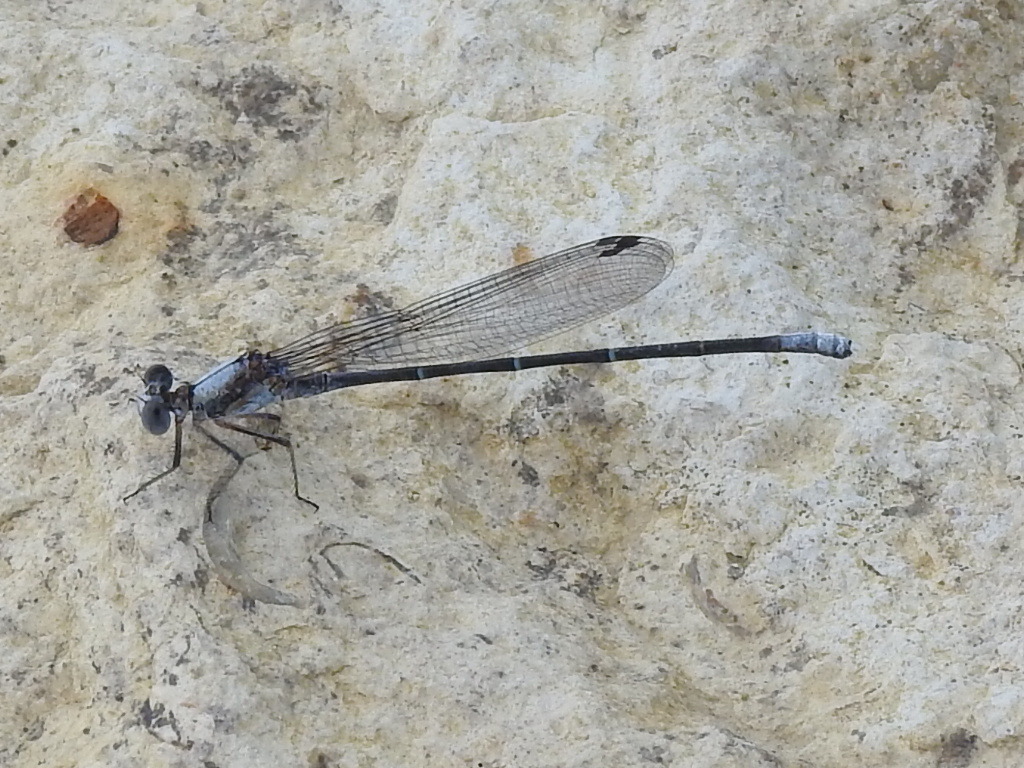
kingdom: Animalia
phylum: Arthropoda
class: Insecta
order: Odonata
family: Coenagrionidae
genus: Argia
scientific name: Argia moesta
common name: Powdered dancer
